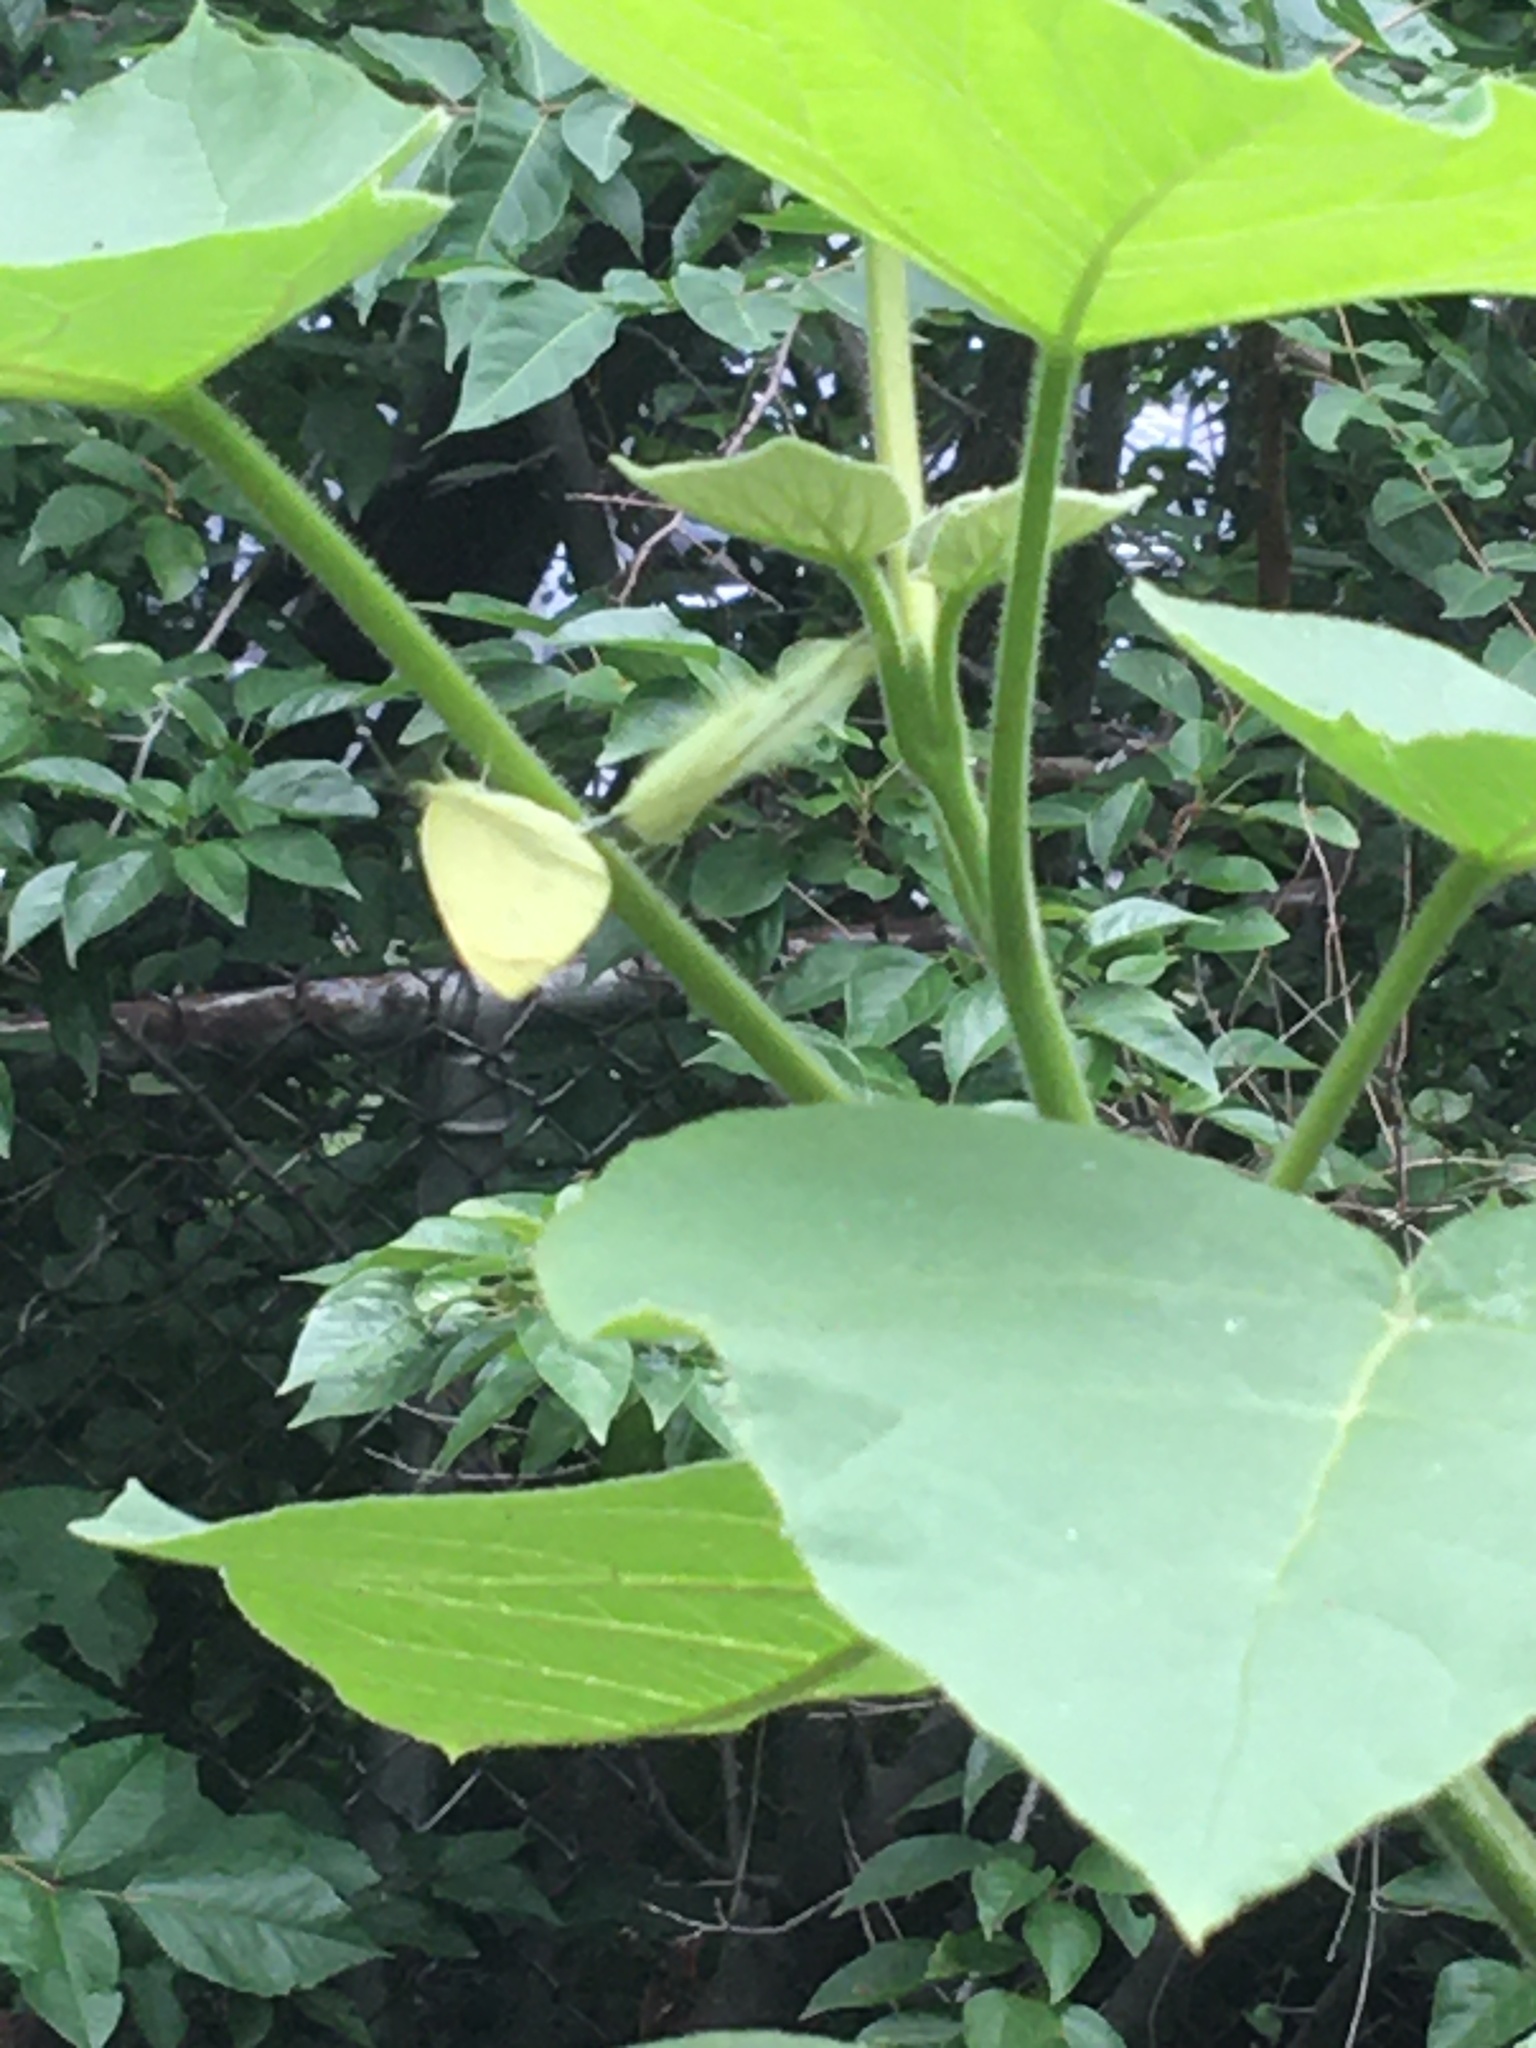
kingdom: Animalia
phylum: Arthropoda
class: Insecta
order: Lepidoptera
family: Pieridae
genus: Pieris
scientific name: Pieris rapae
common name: Small white
